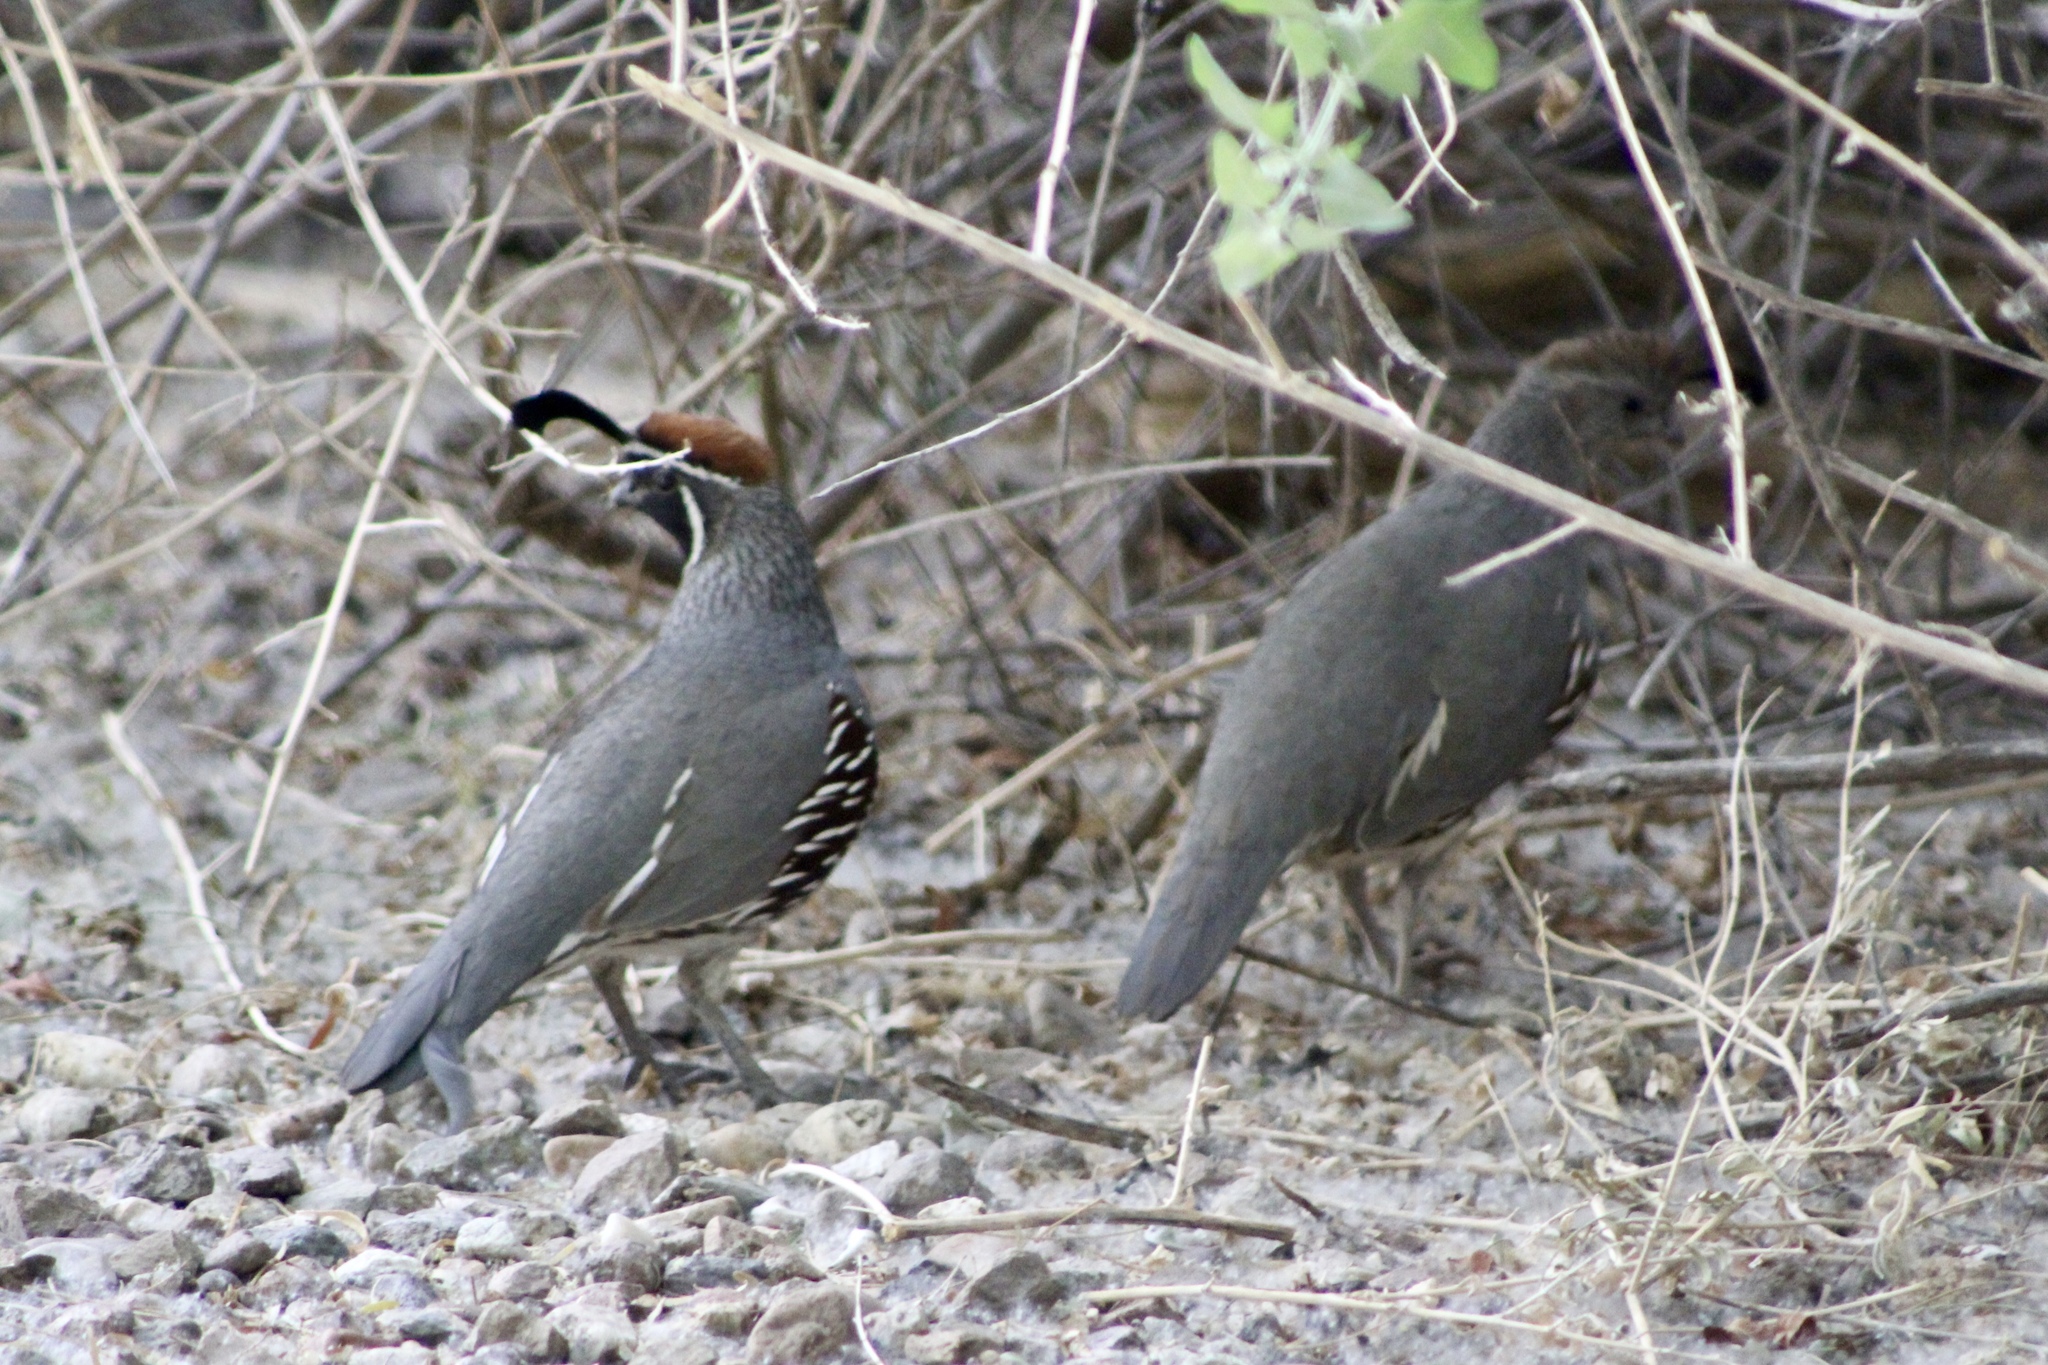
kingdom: Animalia
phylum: Chordata
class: Aves
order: Galliformes
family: Odontophoridae
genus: Callipepla
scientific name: Callipepla gambelii
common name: Gambel's quail
